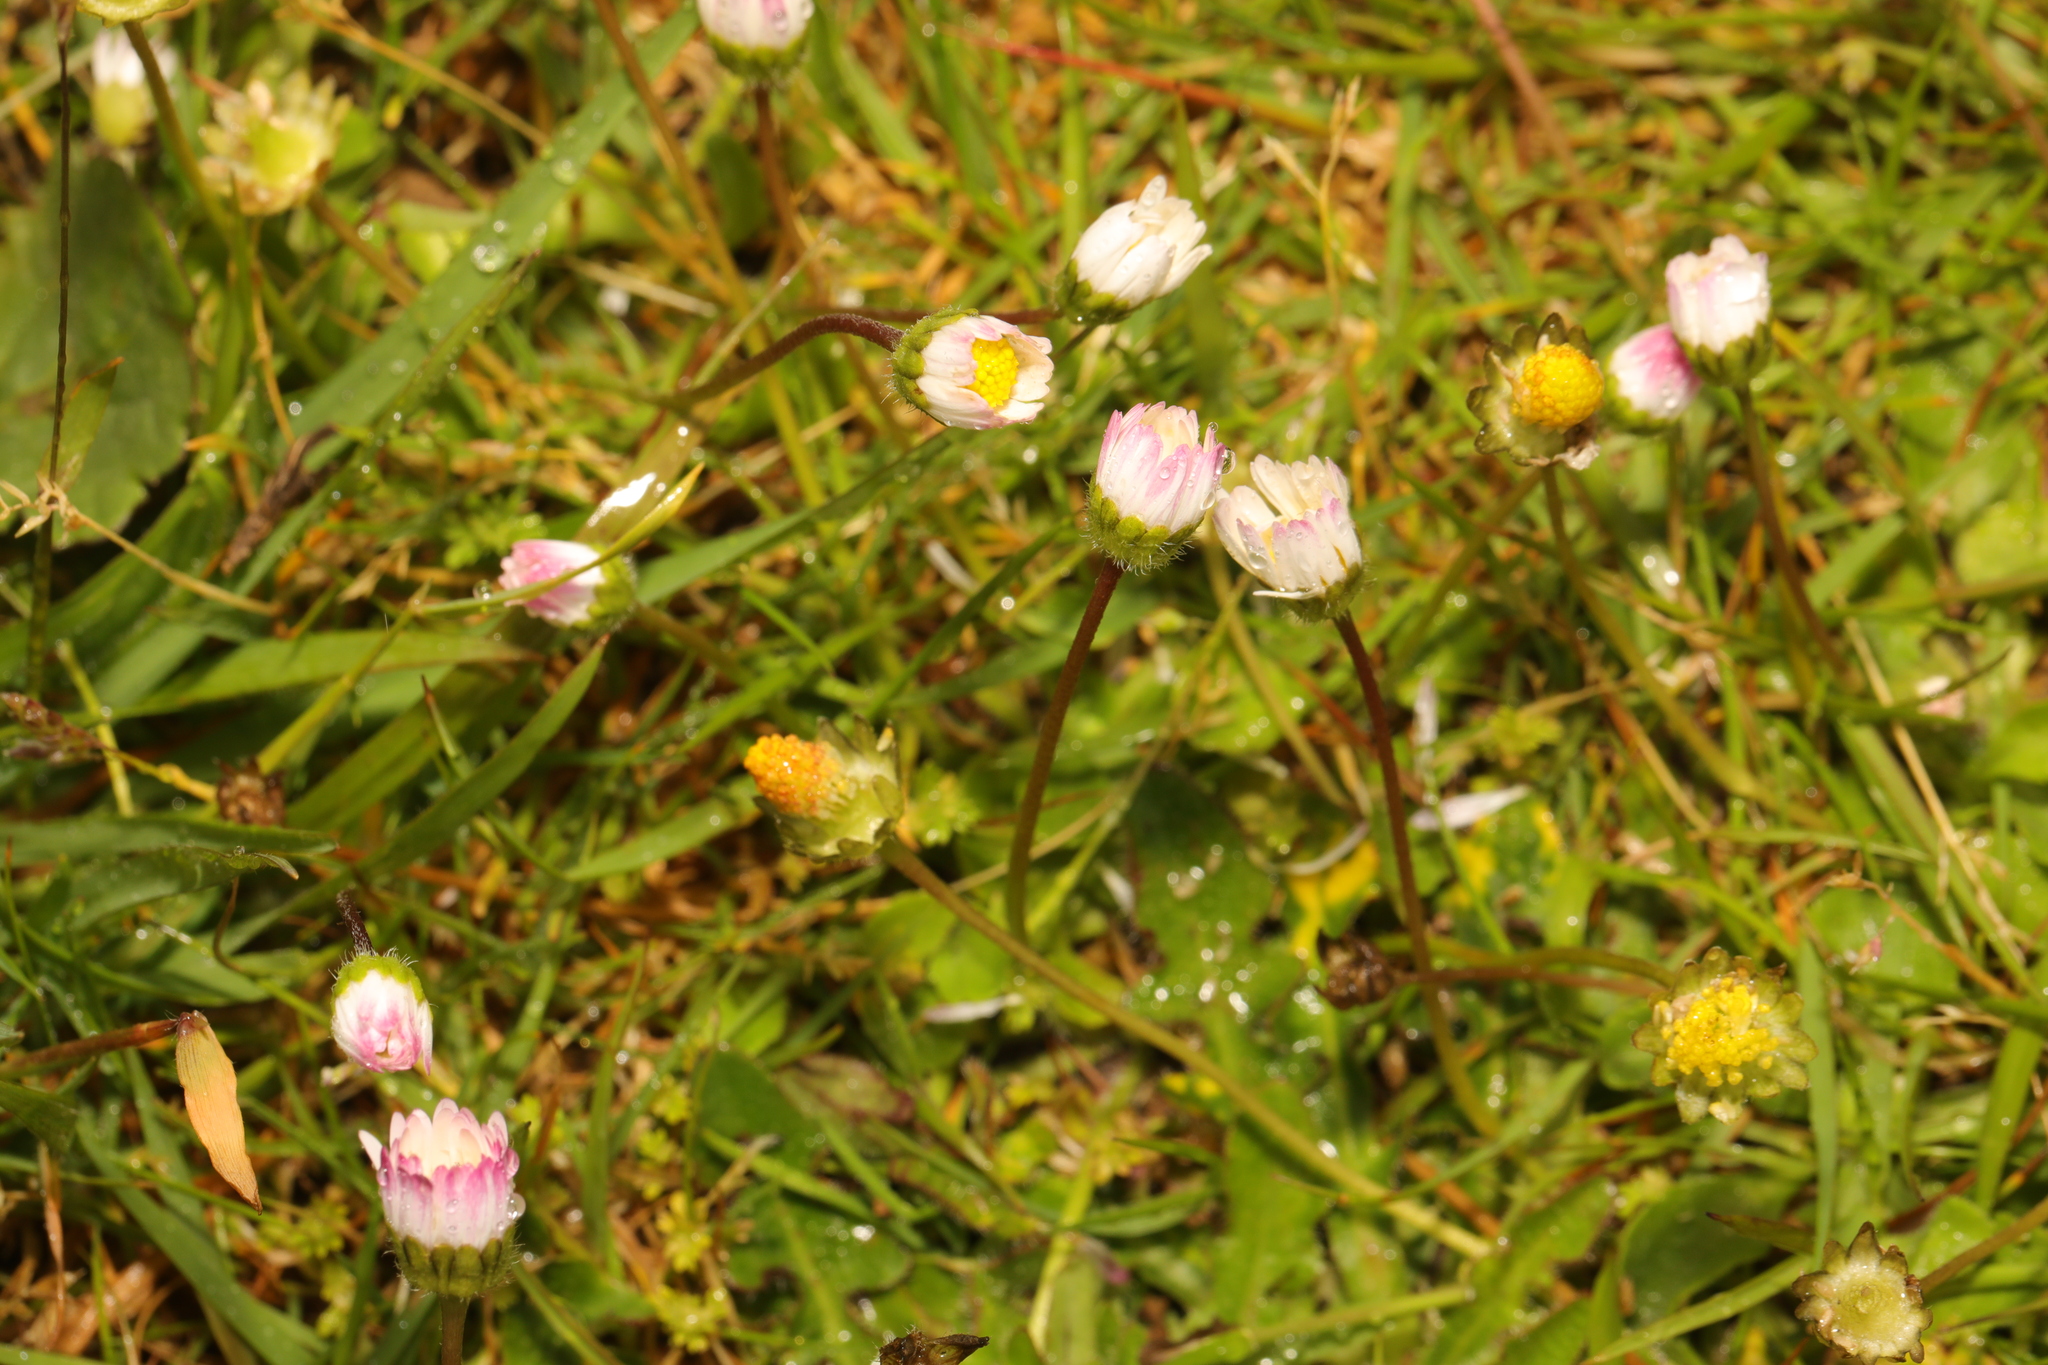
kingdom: Plantae
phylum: Tracheophyta
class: Magnoliopsida
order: Asterales
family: Asteraceae
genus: Bellis
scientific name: Bellis perennis
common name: Lawndaisy
